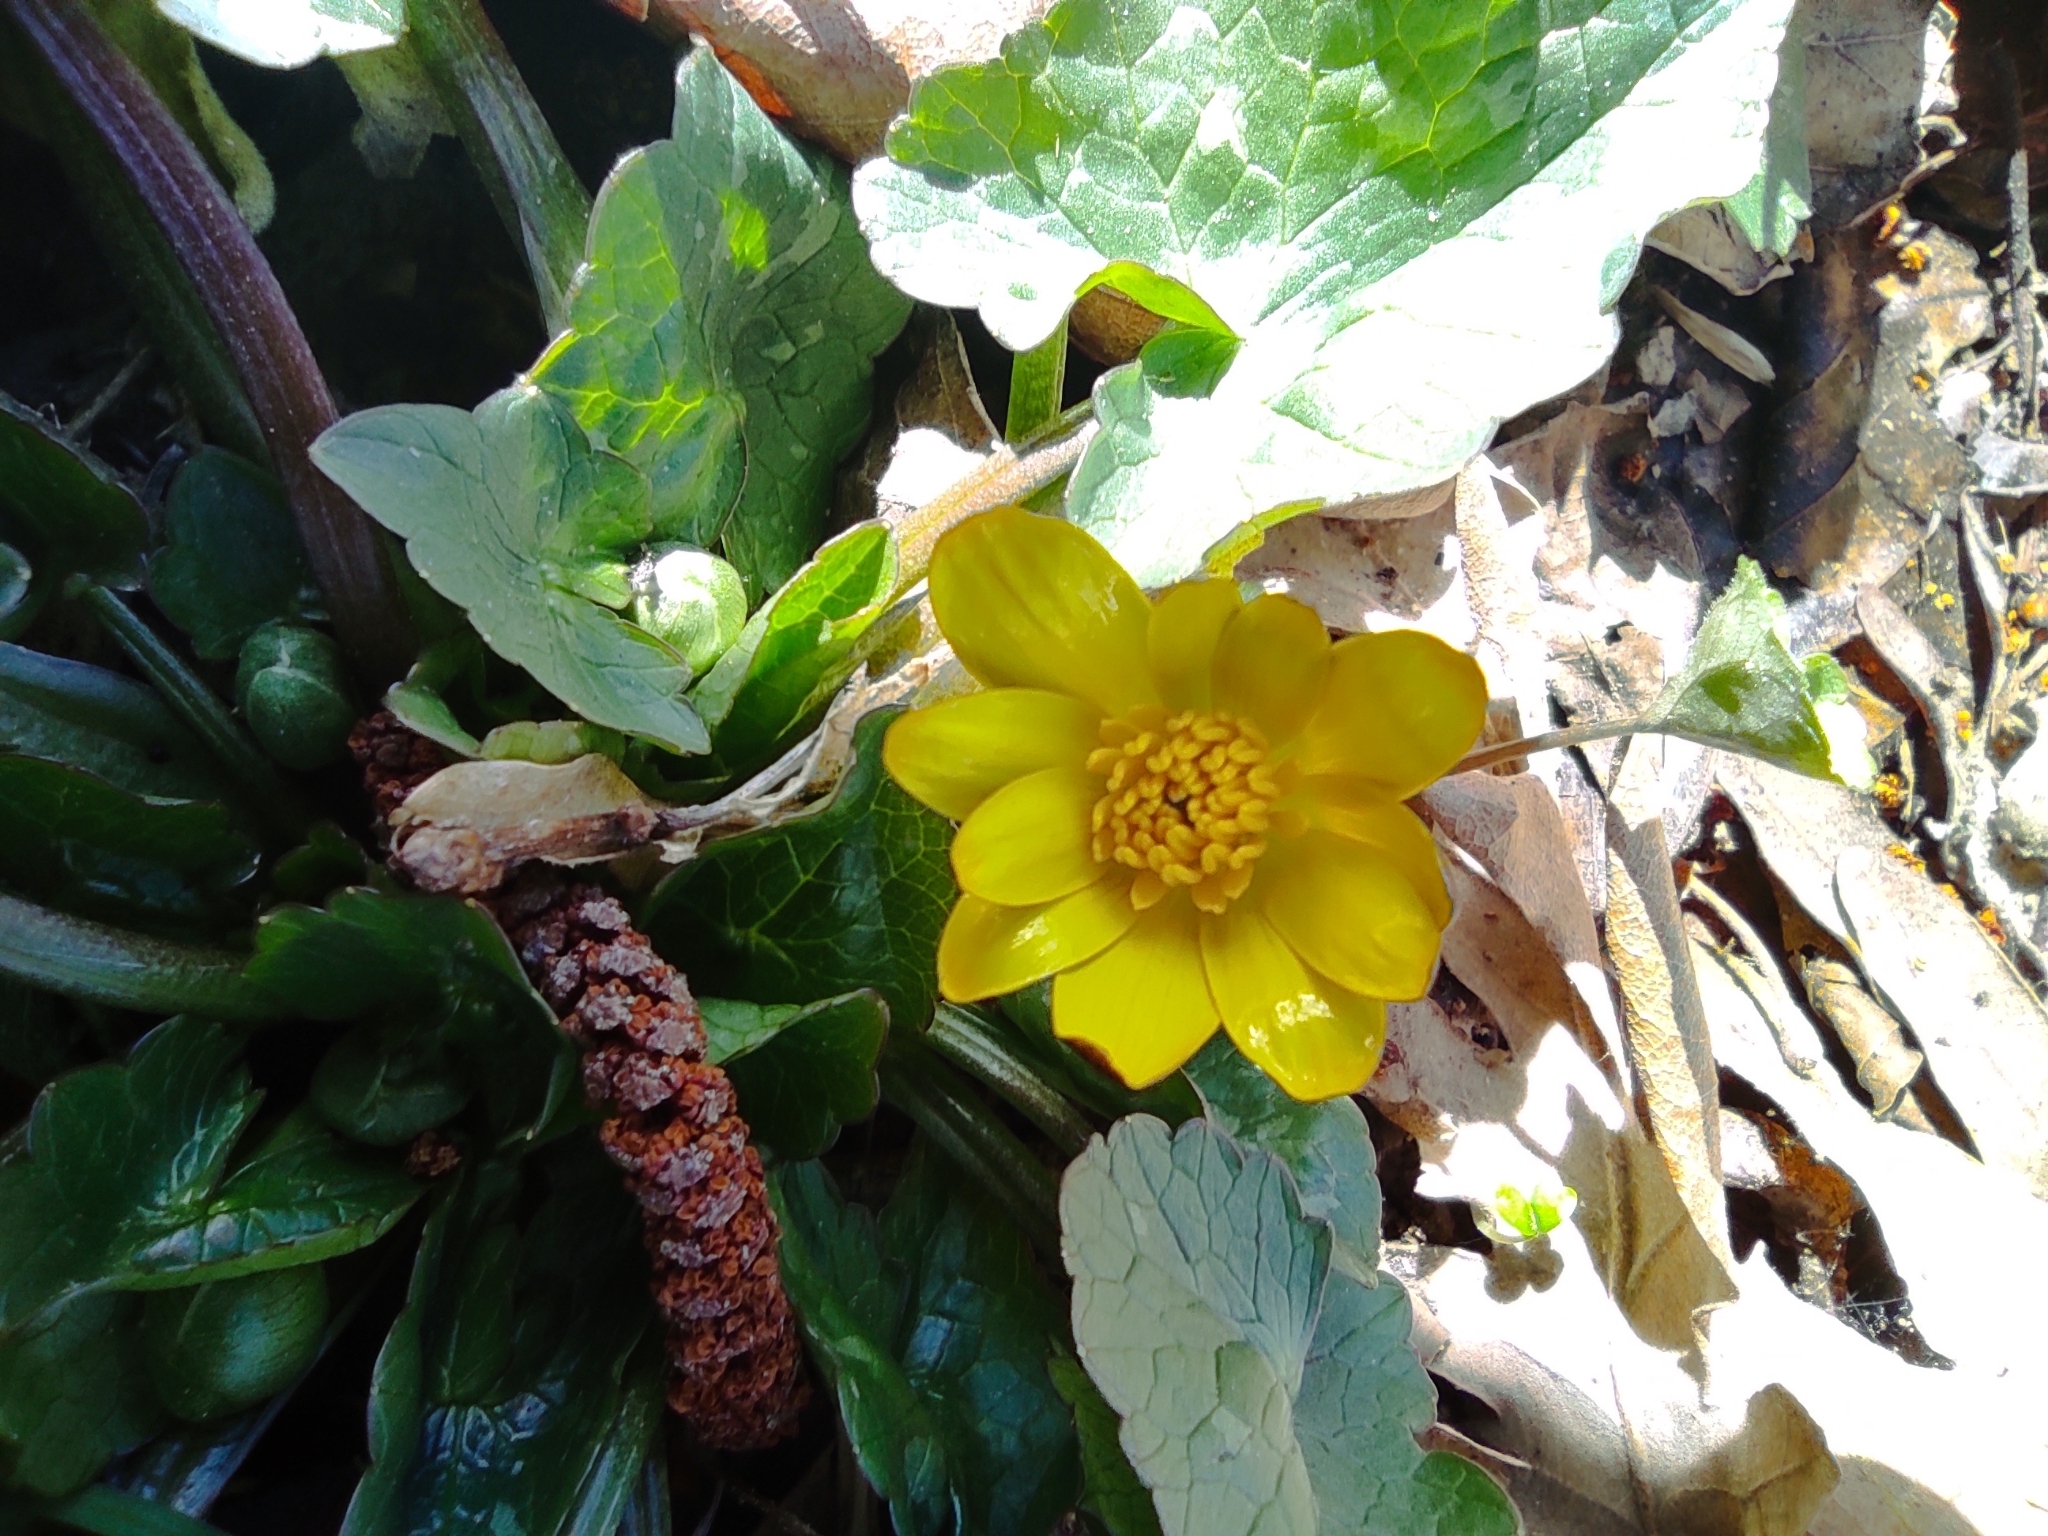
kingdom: Plantae
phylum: Tracheophyta
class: Magnoliopsida
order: Ranunculales
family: Ranunculaceae
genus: Ficaria
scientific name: Ficaria verna
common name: Lesser celandine
